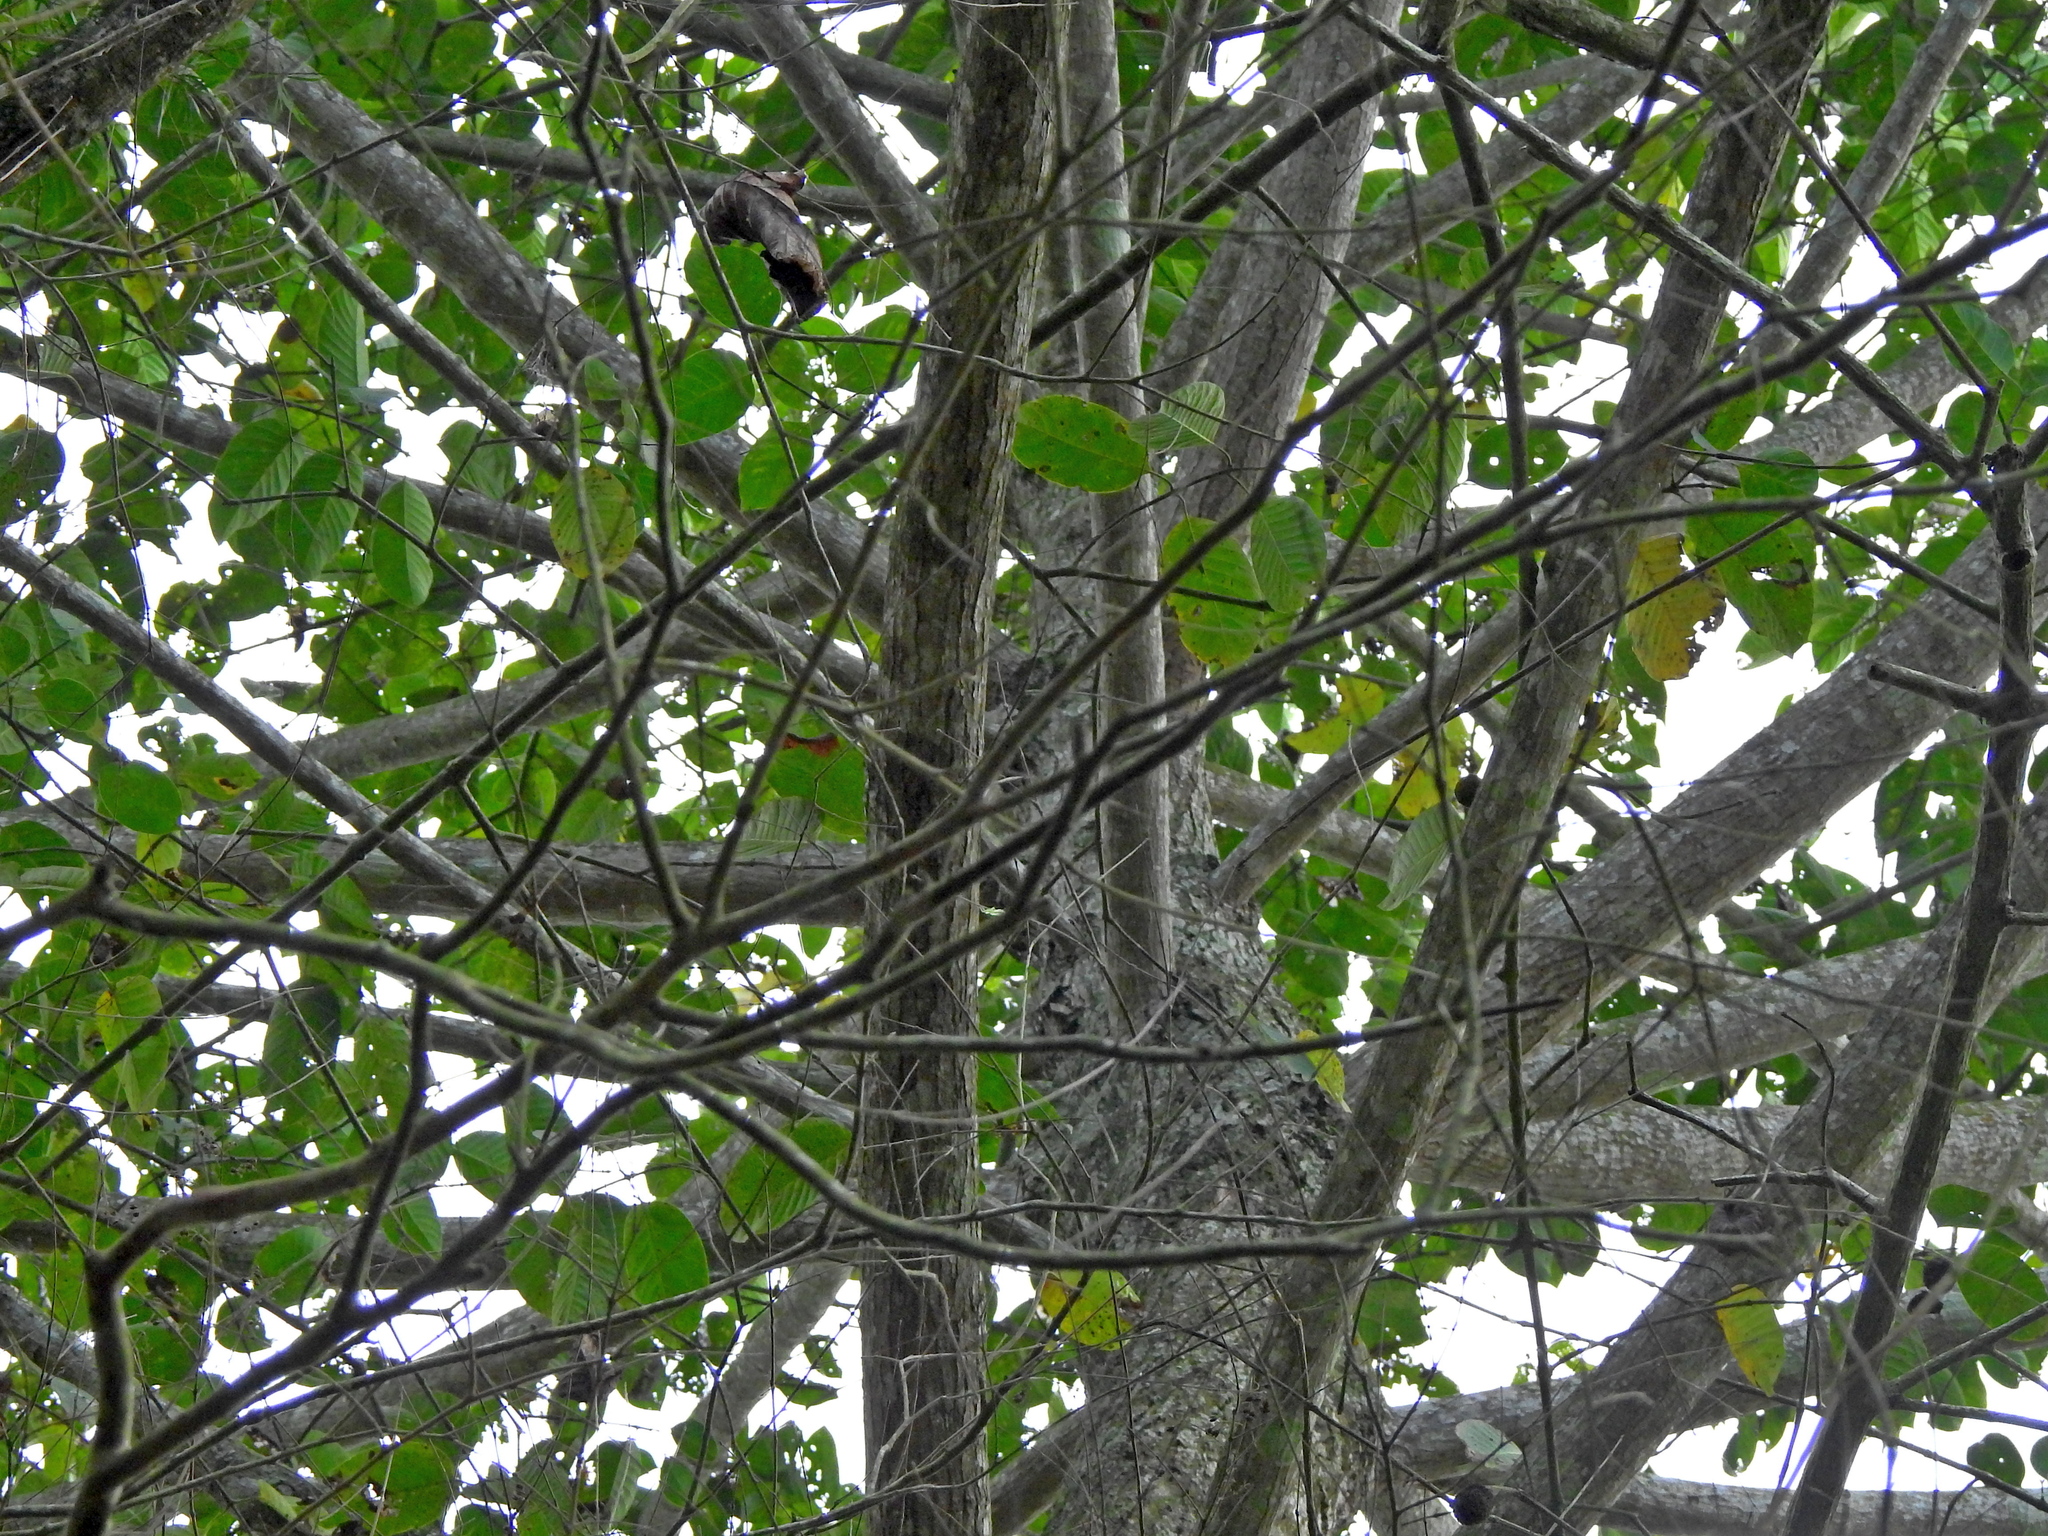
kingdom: Plantae
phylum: Tracheophyta
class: Magnoliopsida
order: Gentianales
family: Rubiaceae
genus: Neolamarckia
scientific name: Neolamarckia cadamba
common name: Leichhardt-pine
